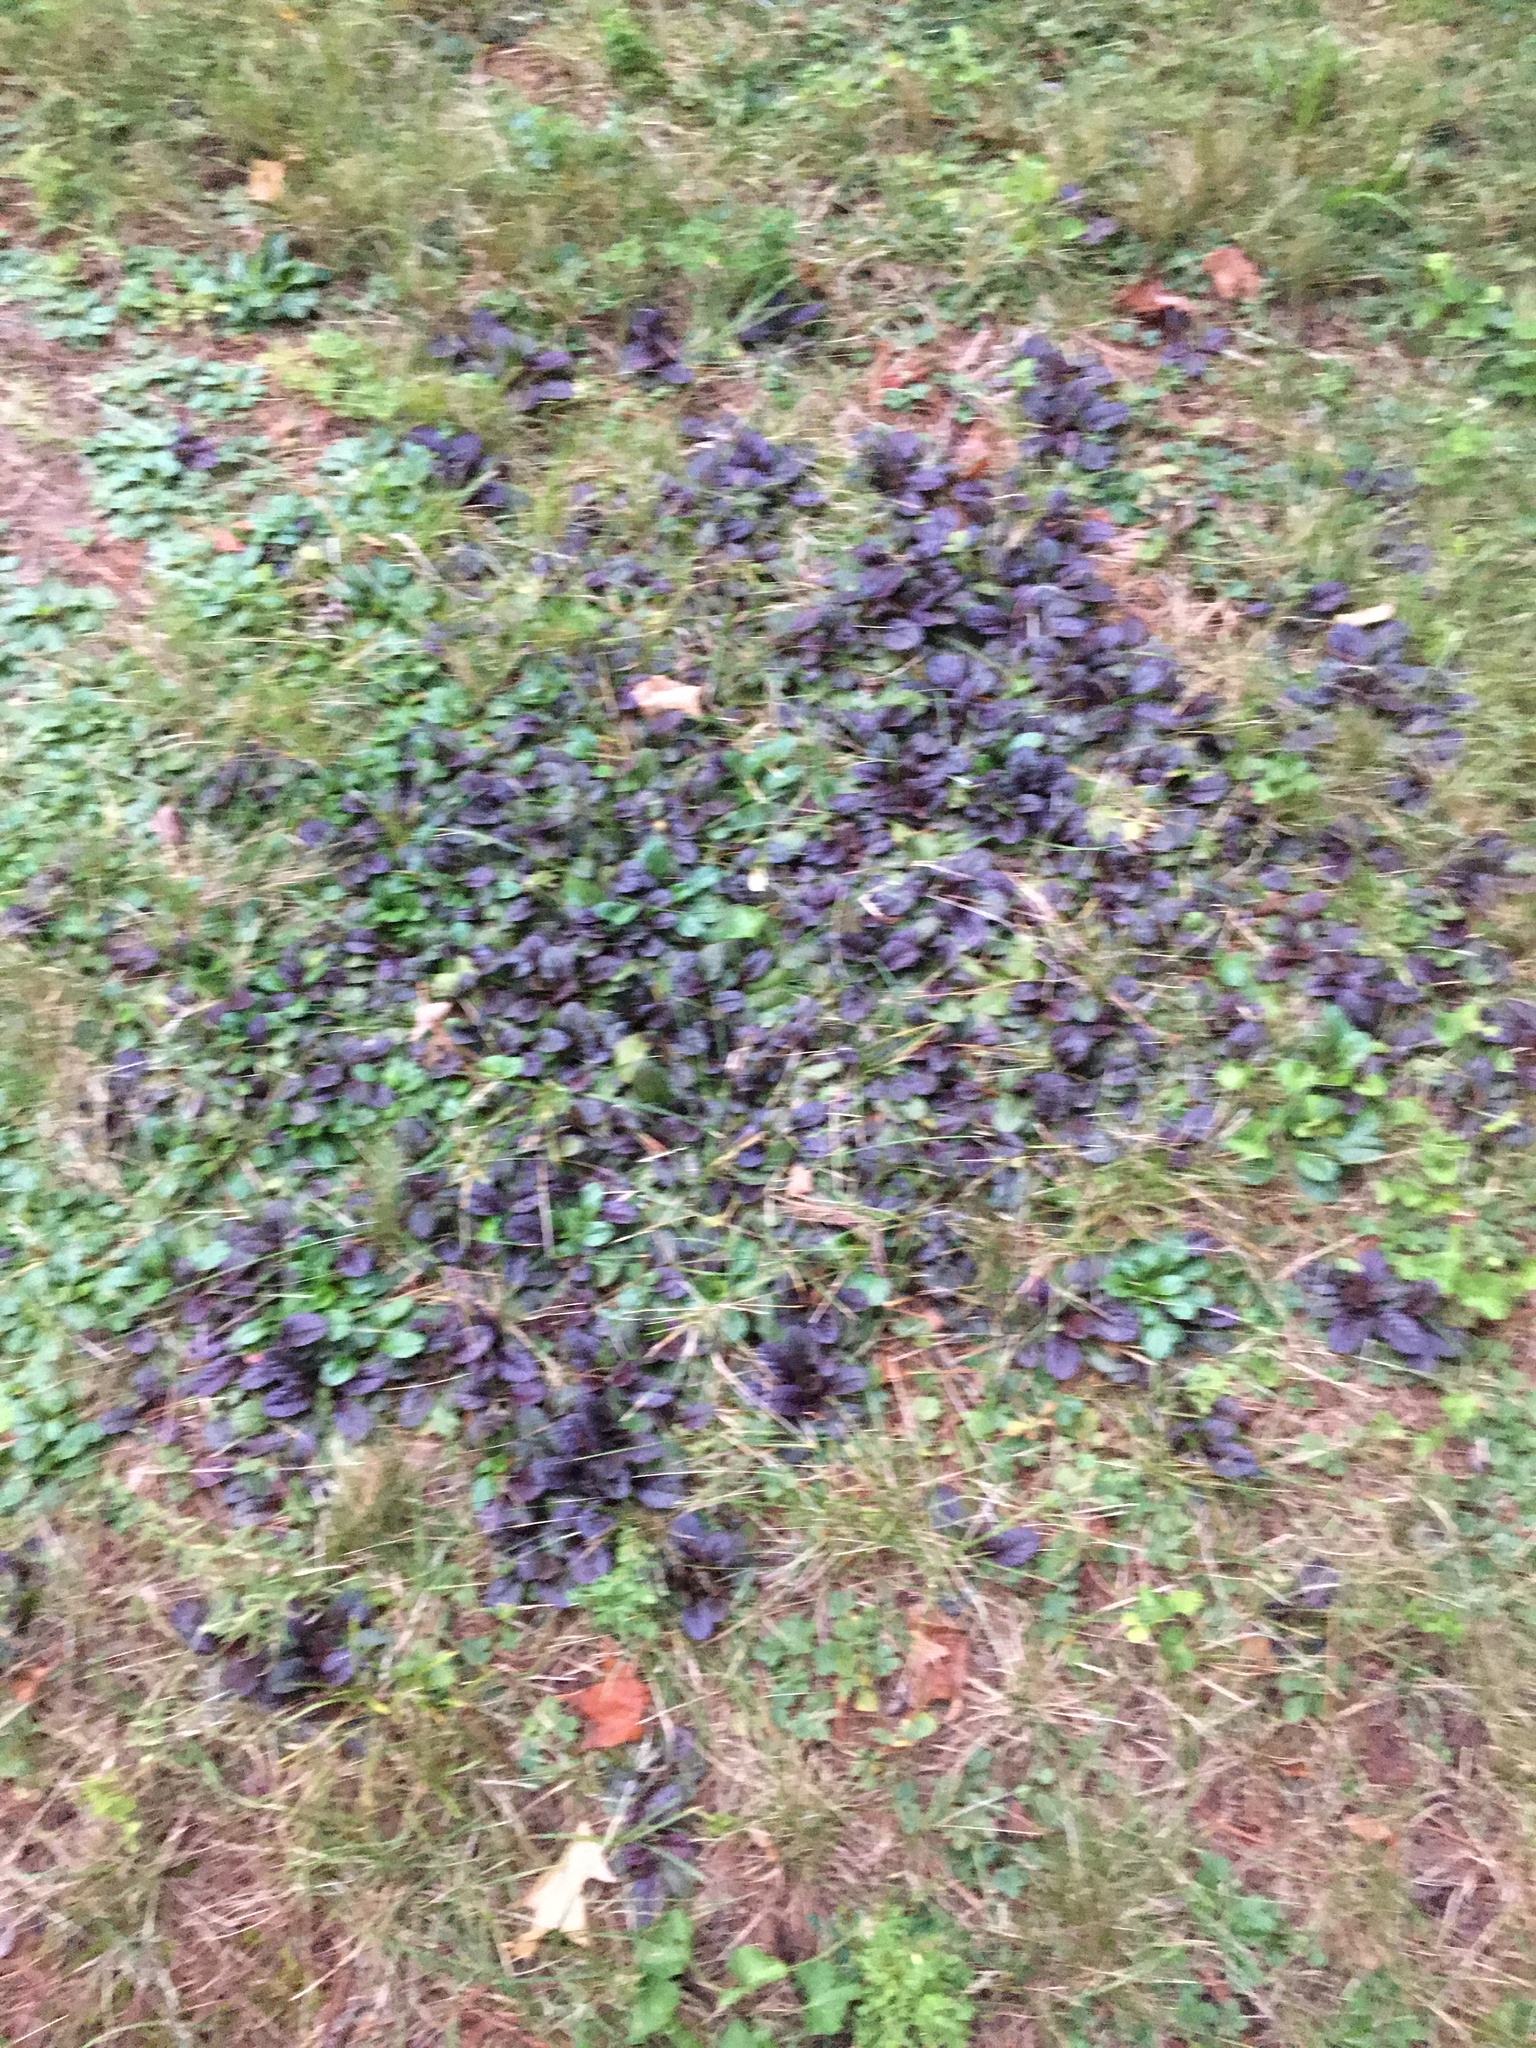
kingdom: Plantae
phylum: Tracheophyta
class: Magnoliopsida
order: Lamiales
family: Lamiaceae
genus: Ajuga
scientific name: Ajuga reptans
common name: Bugle
